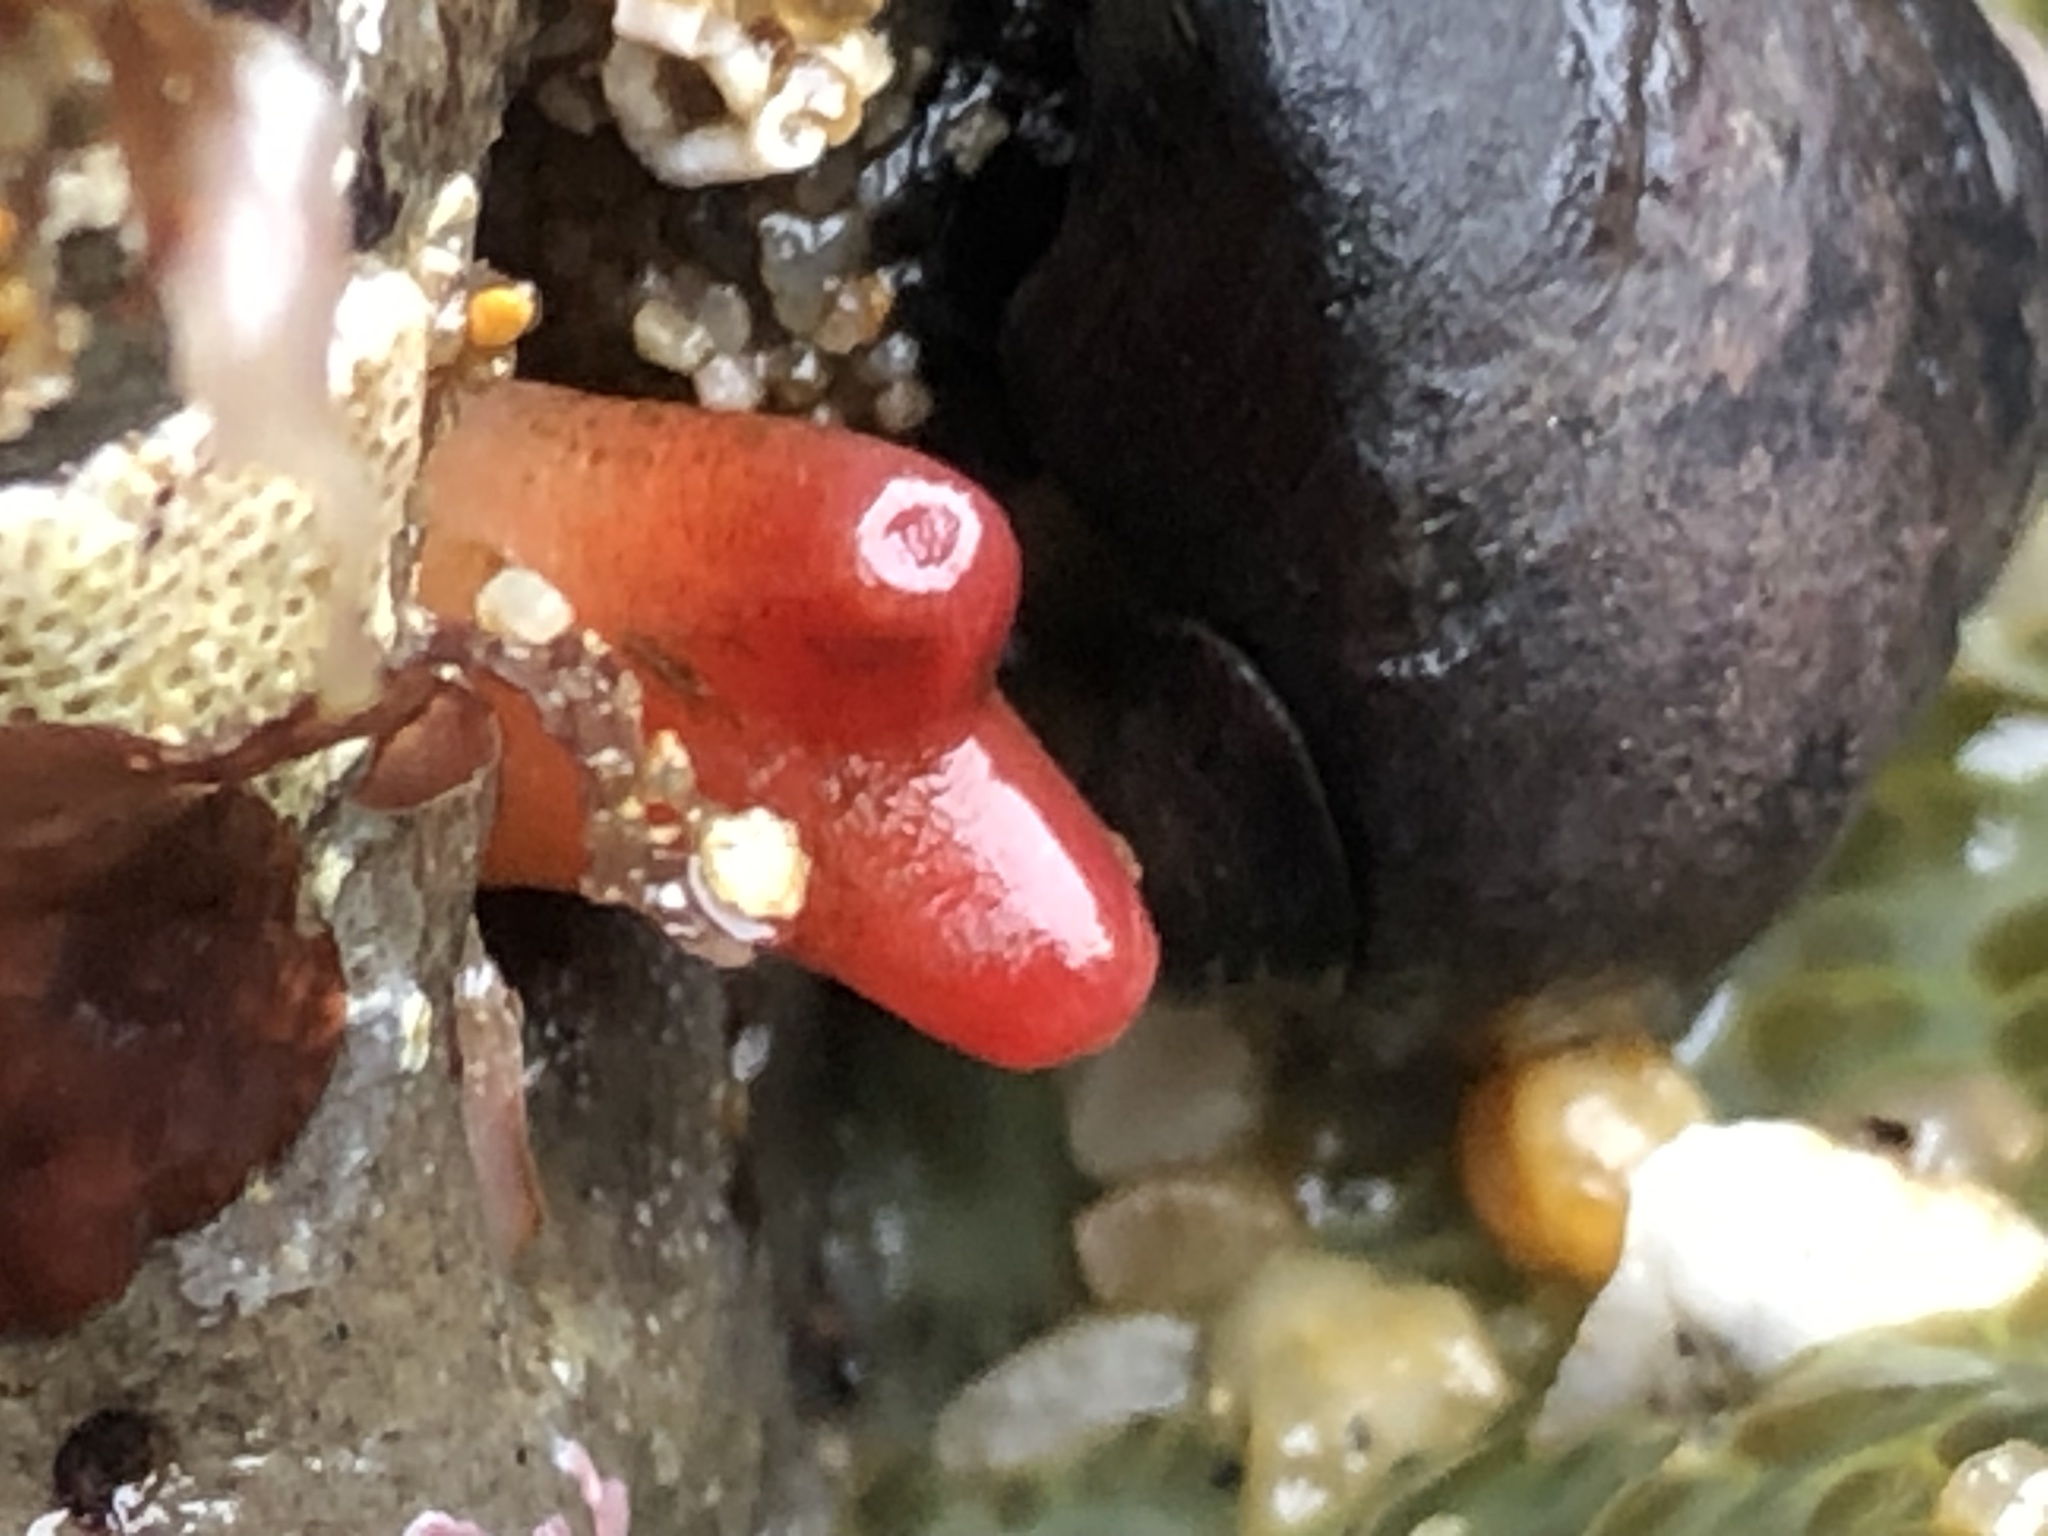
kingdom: Animalia
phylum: Mollusca
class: Bivalvia
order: Adapedonta
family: Hiatellidae
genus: Hiatella
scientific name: Hiatella arctica
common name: Arctic hiatella
